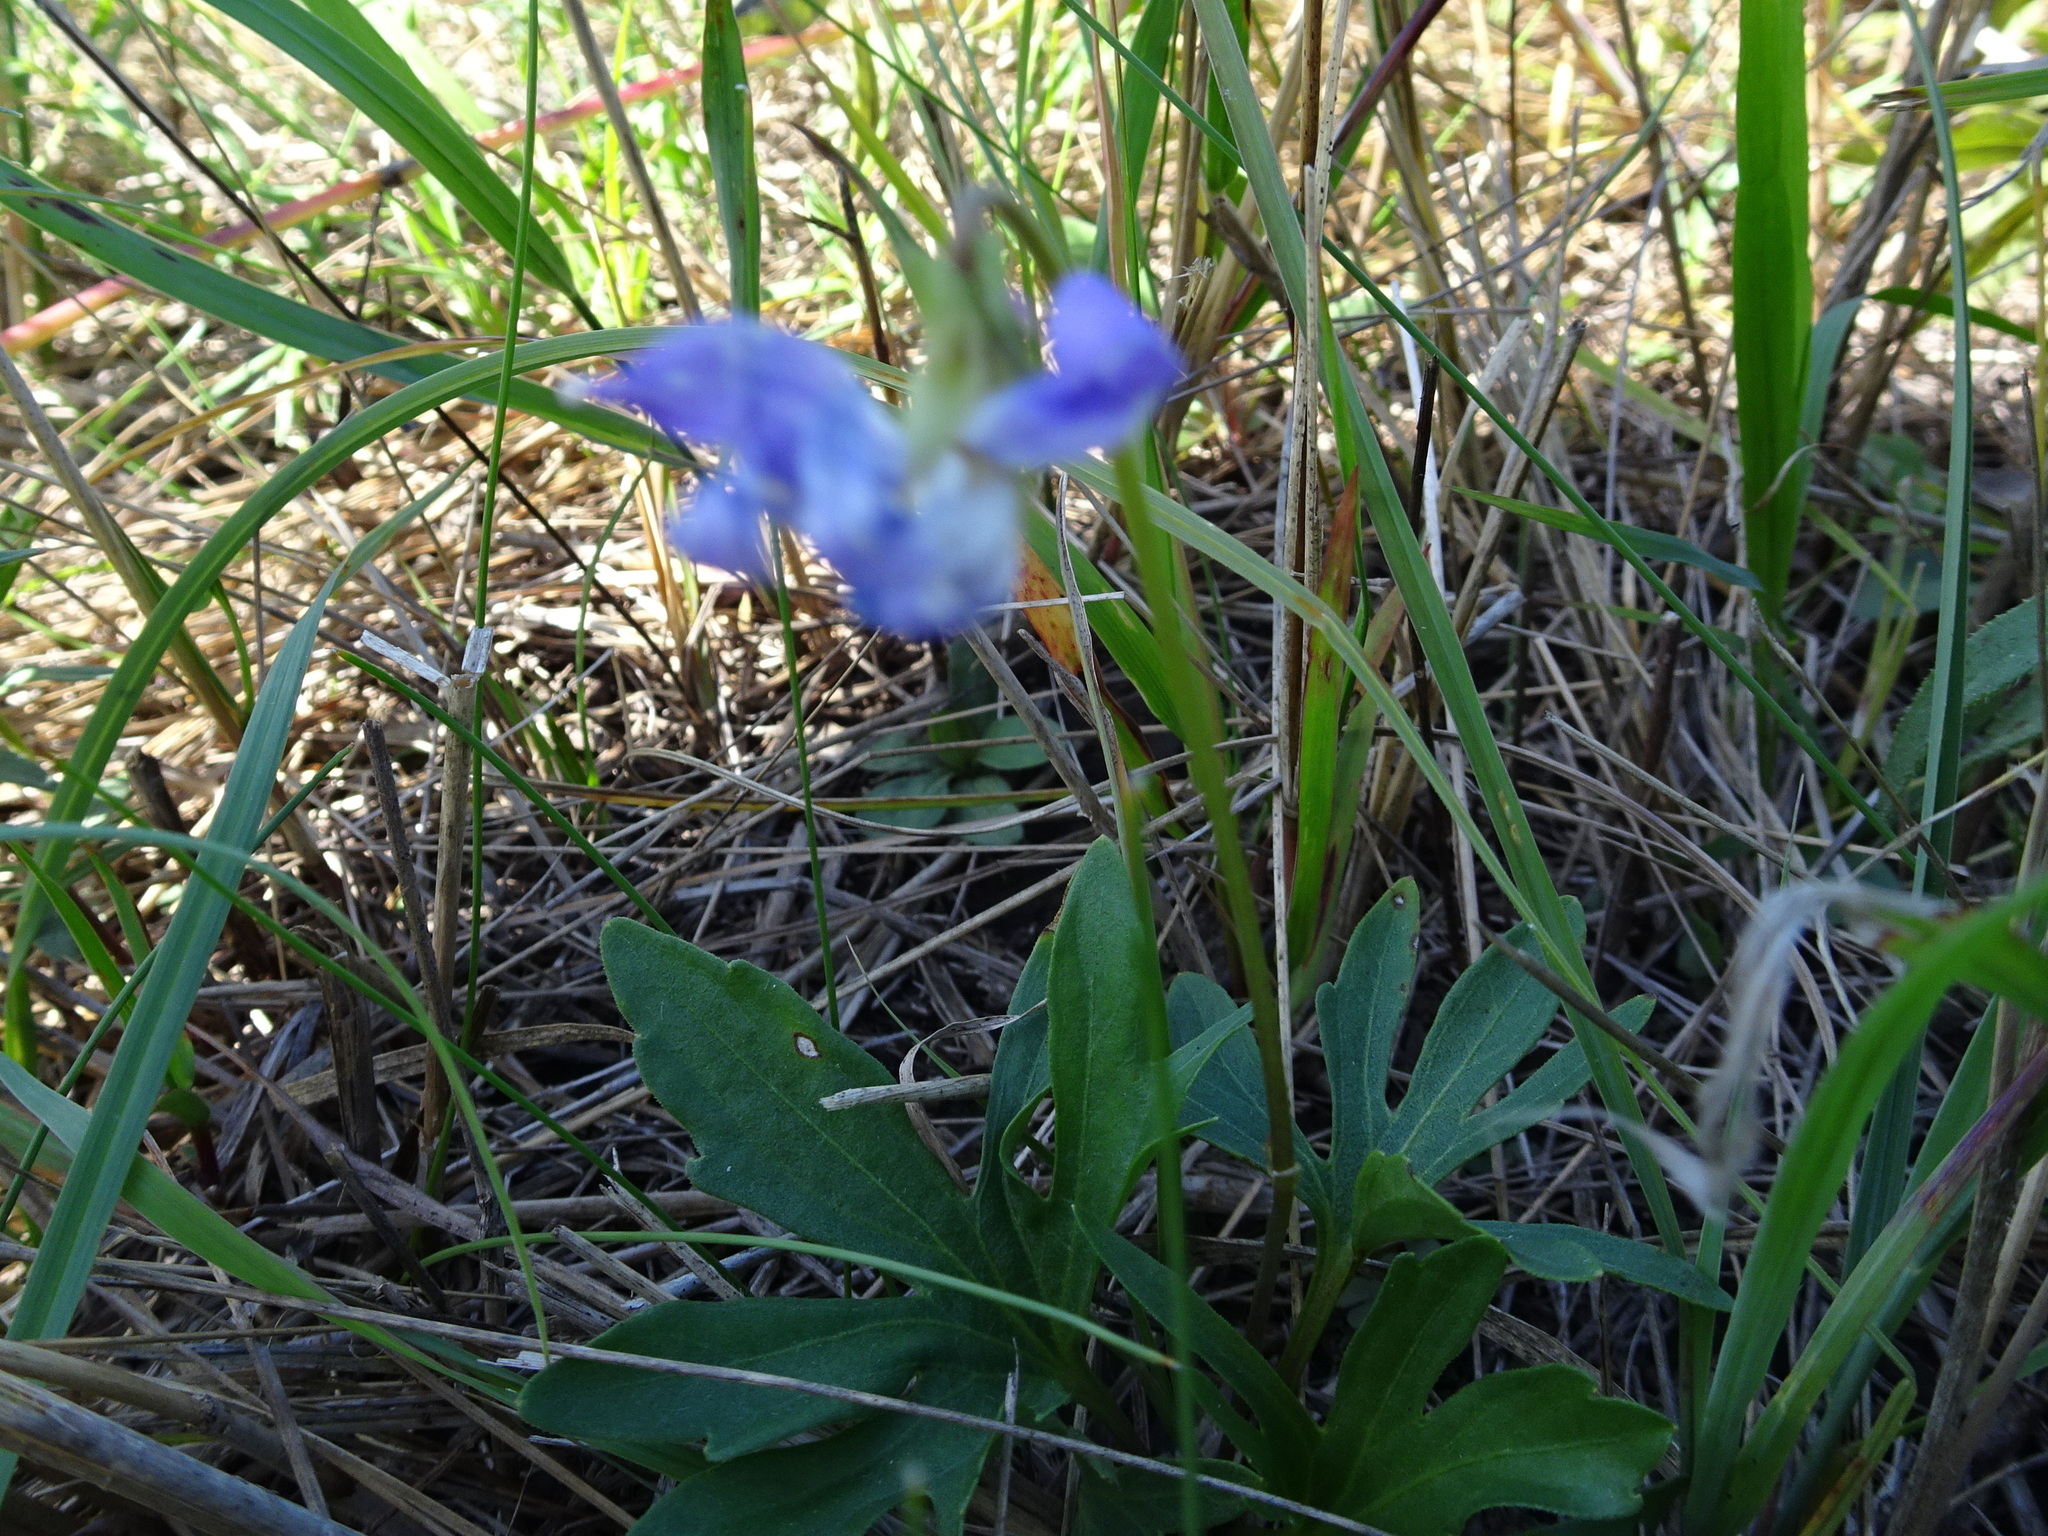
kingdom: Plantae
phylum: Tracheophyta
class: Magnoliopsida
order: Malpighiales
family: Violaceae
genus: Viola
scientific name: Viola pedatifida
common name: Prairie violet
